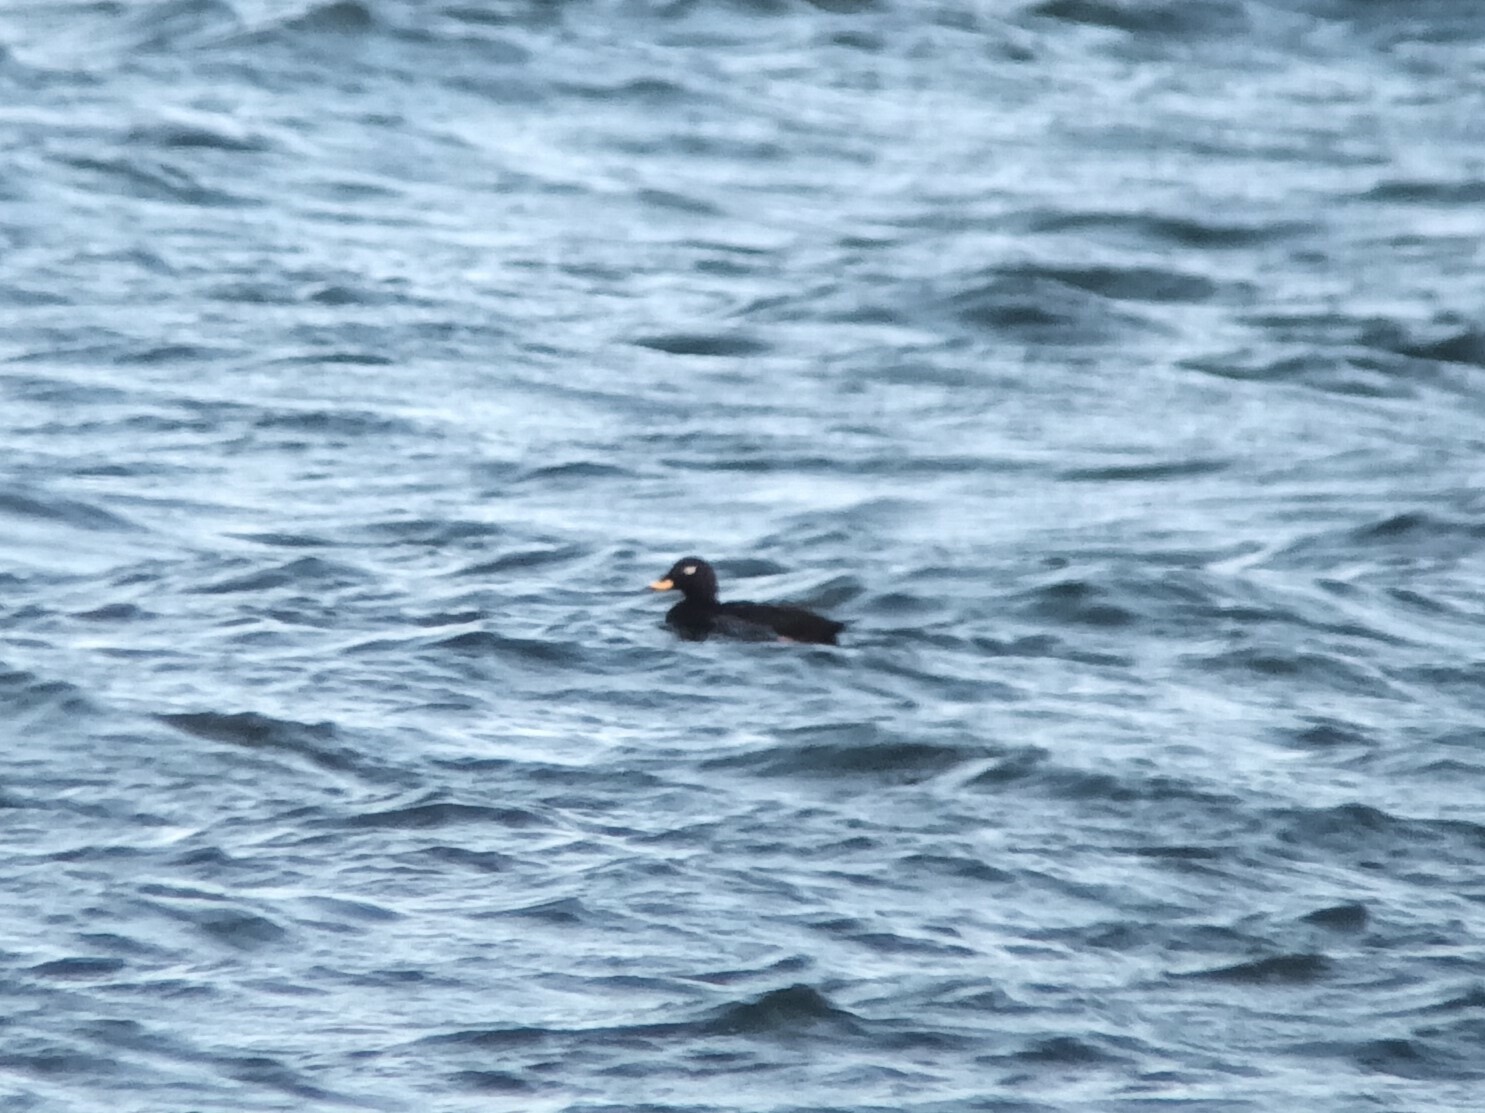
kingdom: Animalia
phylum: Chordata
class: Aves
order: Anseriformes
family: Anatidae
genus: Melanitta
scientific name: Melanitta fusca
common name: Velvet scoter
